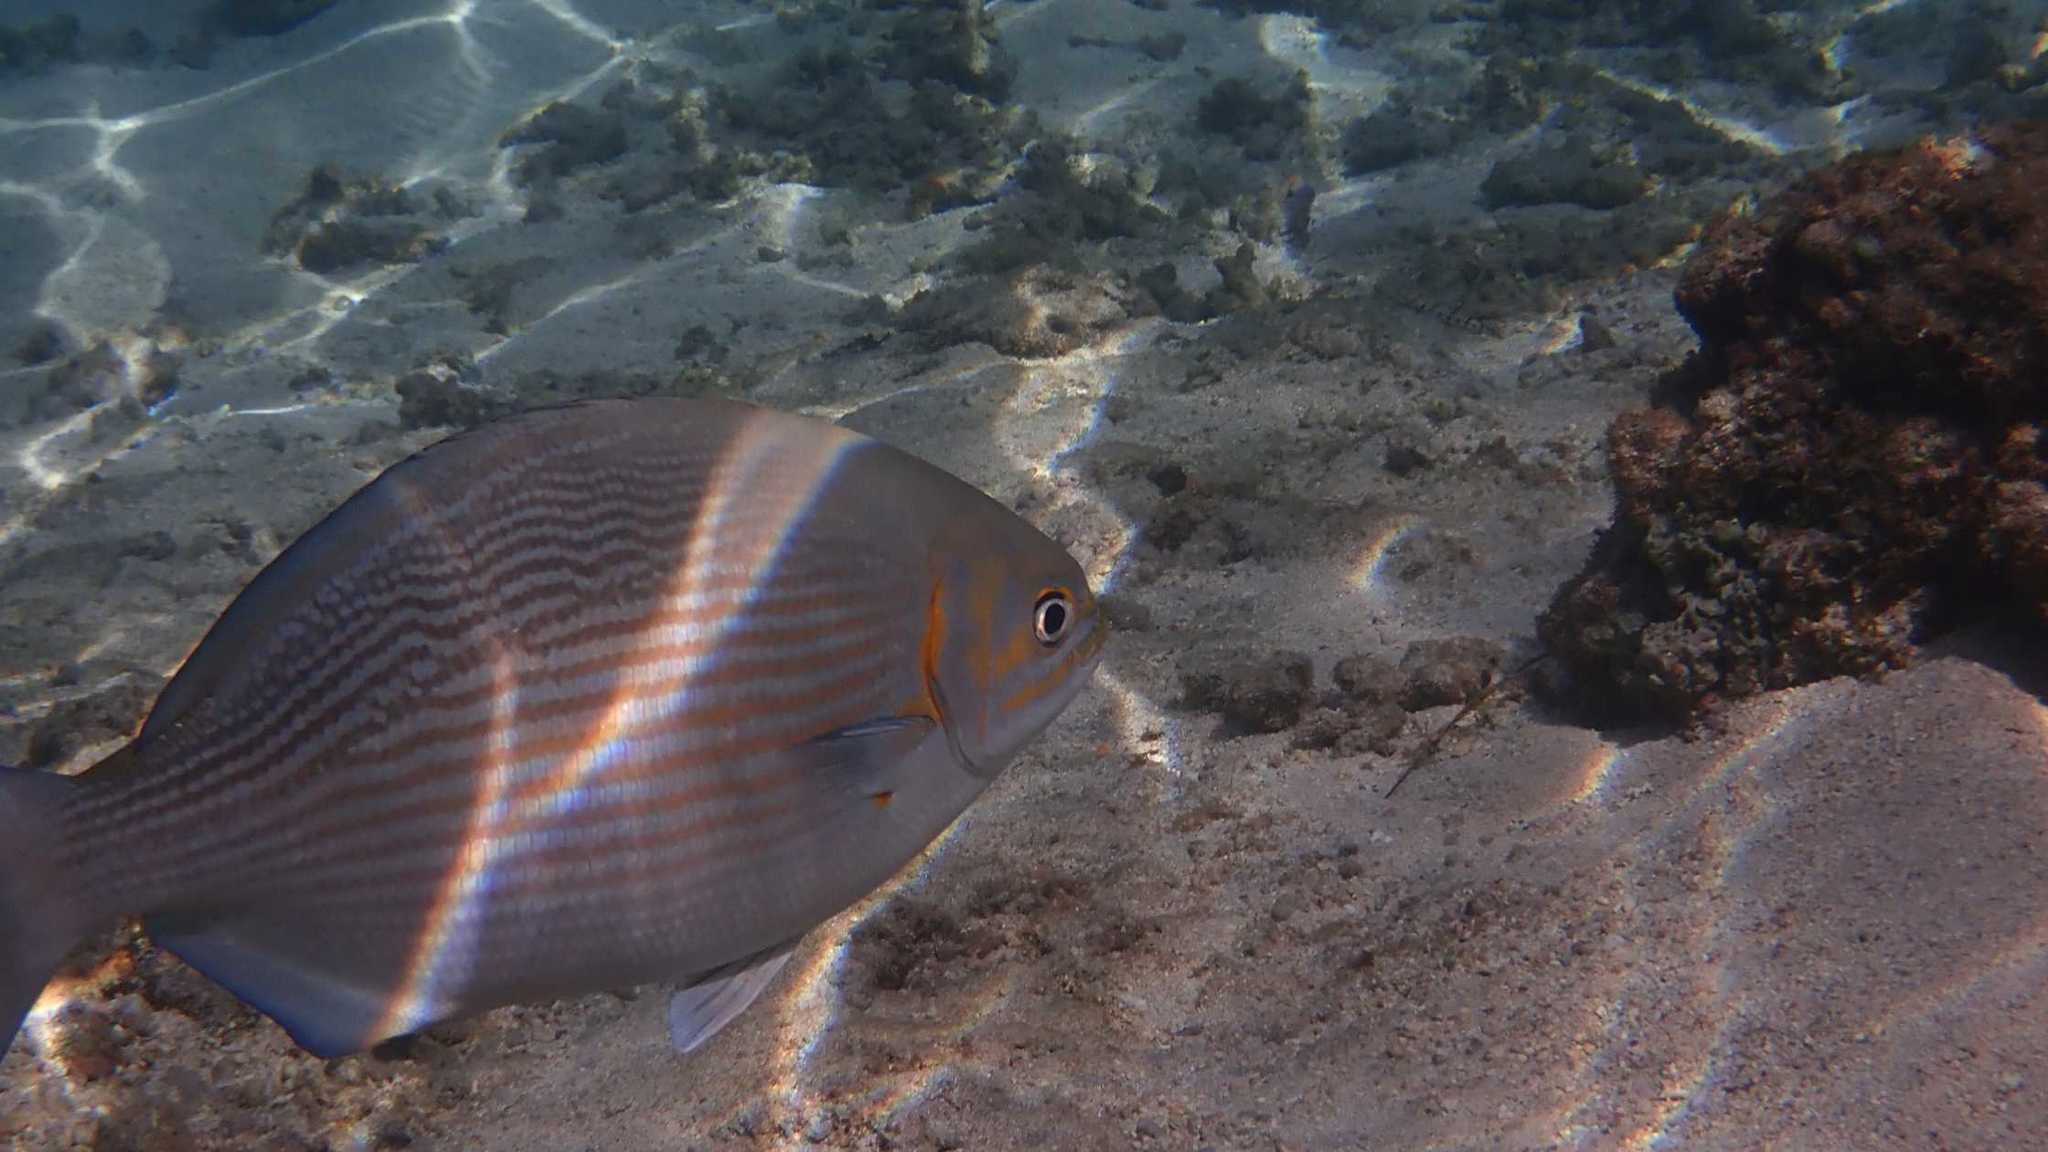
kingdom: Animalia
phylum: Chordata
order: Perciformes
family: Kyphosidae
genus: Kyphosus
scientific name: Kyphosus vaigiensis
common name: Brassy chub
